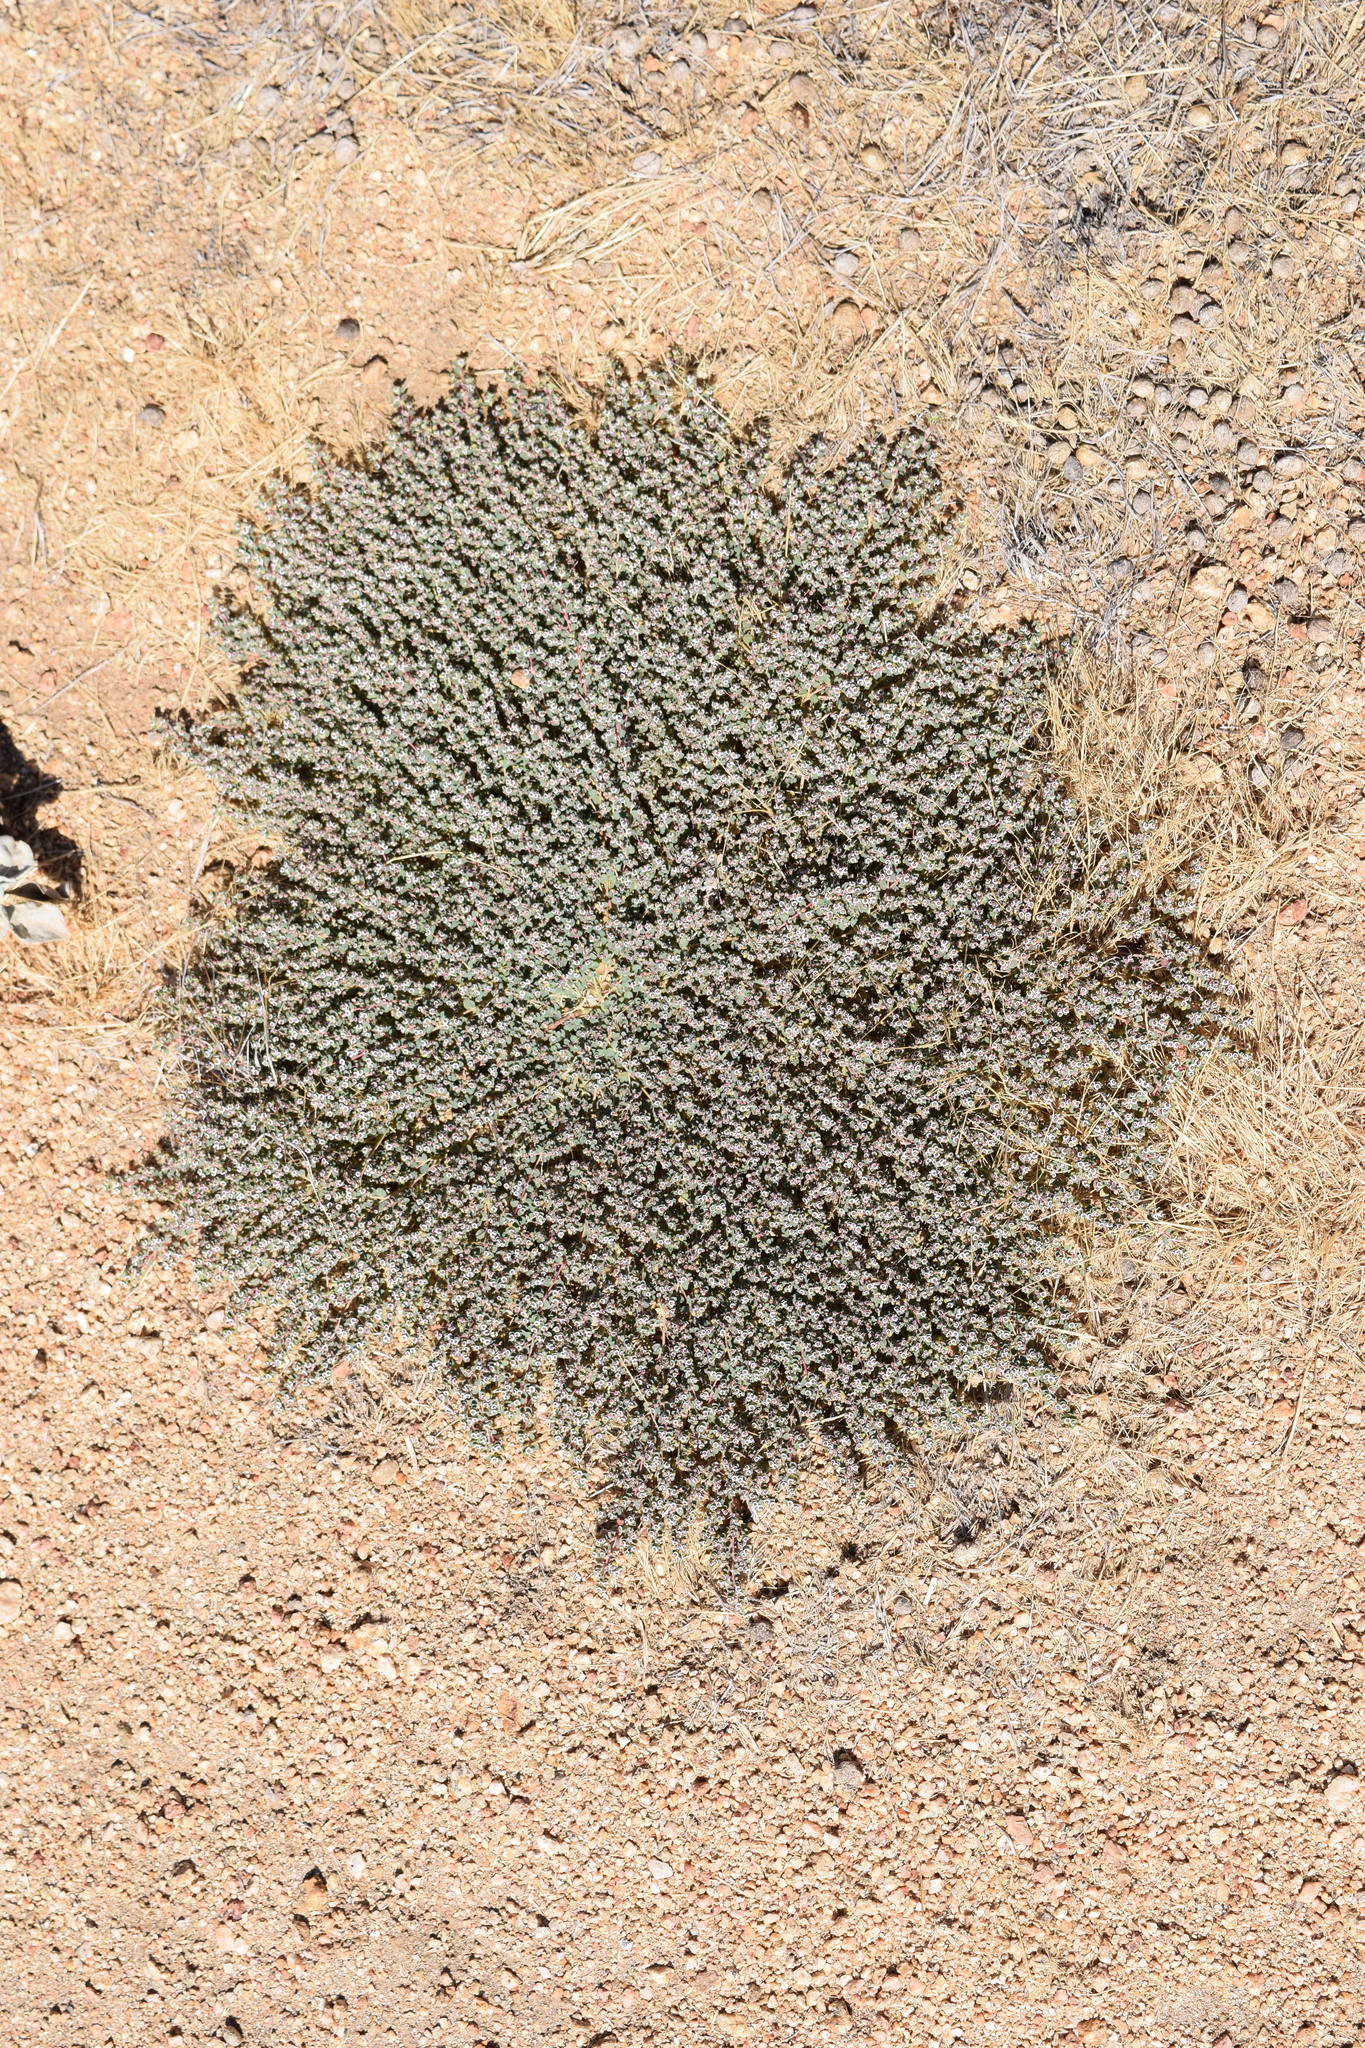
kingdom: Plantae
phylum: Tracheophyta
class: Magnoliopsida
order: Malpighiales
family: Euphorbiaceae
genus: Euphorbia
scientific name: Euphorbia polycarpa
